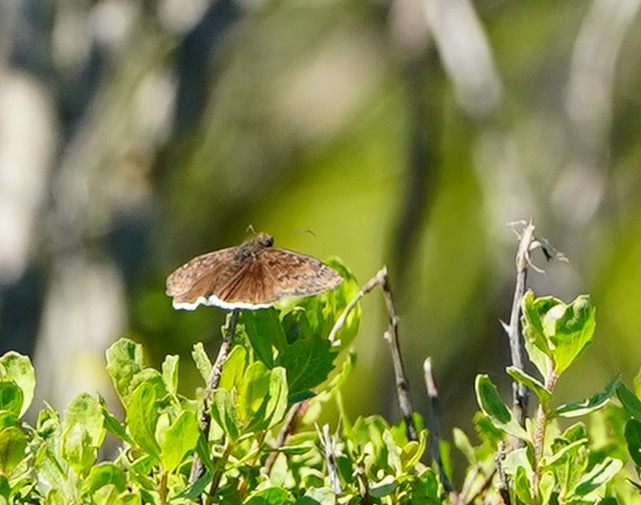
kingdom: Animalia
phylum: Arthropoda
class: Insecta
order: Lepidoptera
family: Hesperiidae
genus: Erynnis
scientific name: Erynnis tristis
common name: Mournful duskywing
